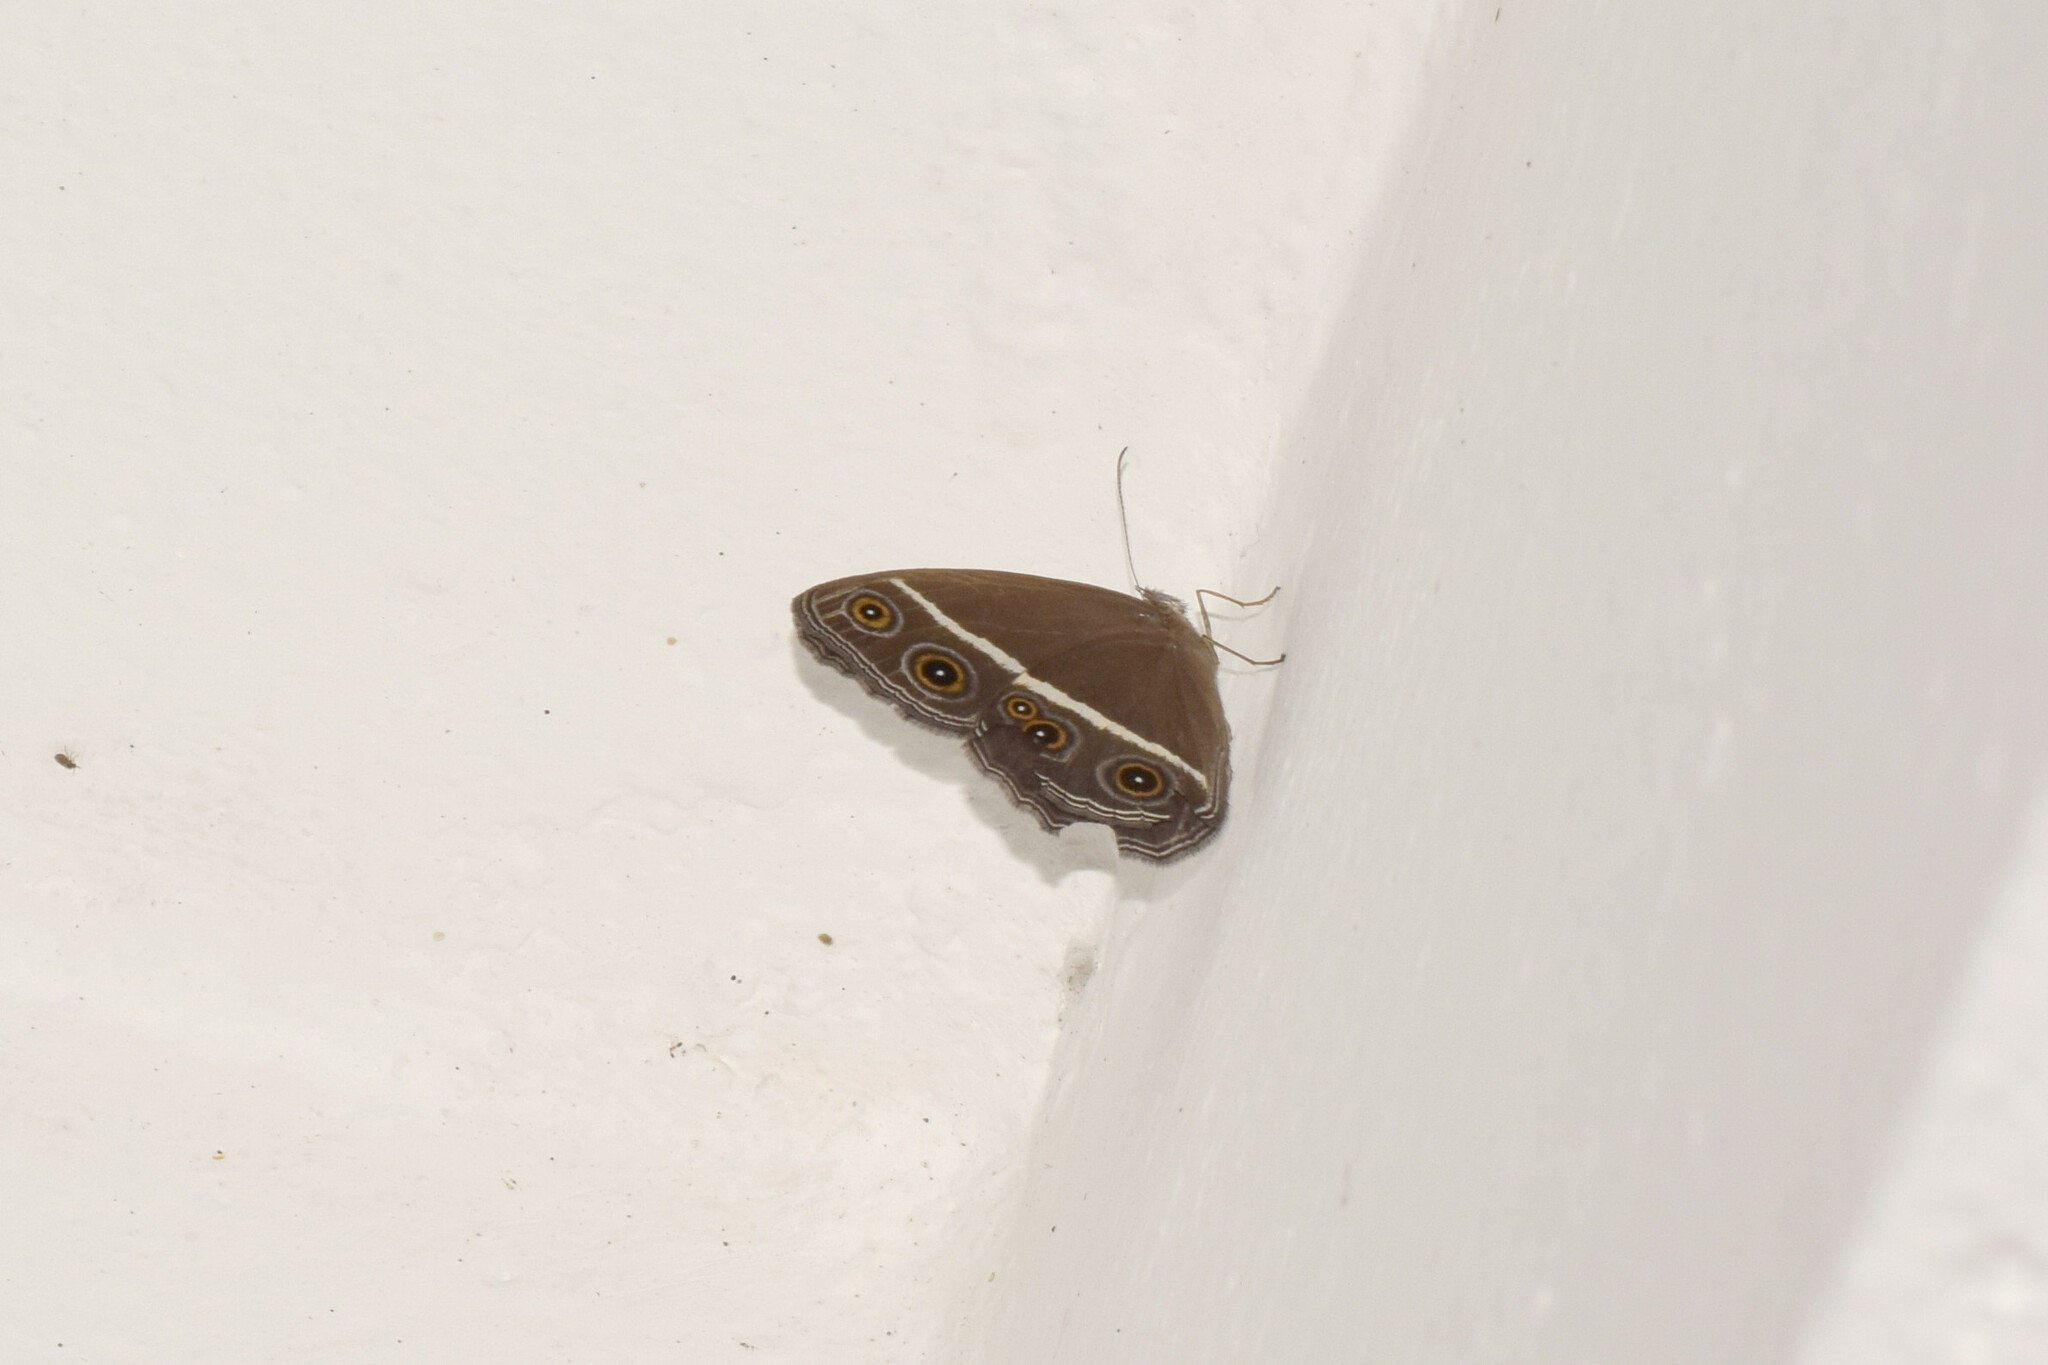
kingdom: Animalia
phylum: Arthropoda
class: Insecta
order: Lepidoptera
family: Nymphalidae
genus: Orsotriaena
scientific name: Orsotriaena medus
